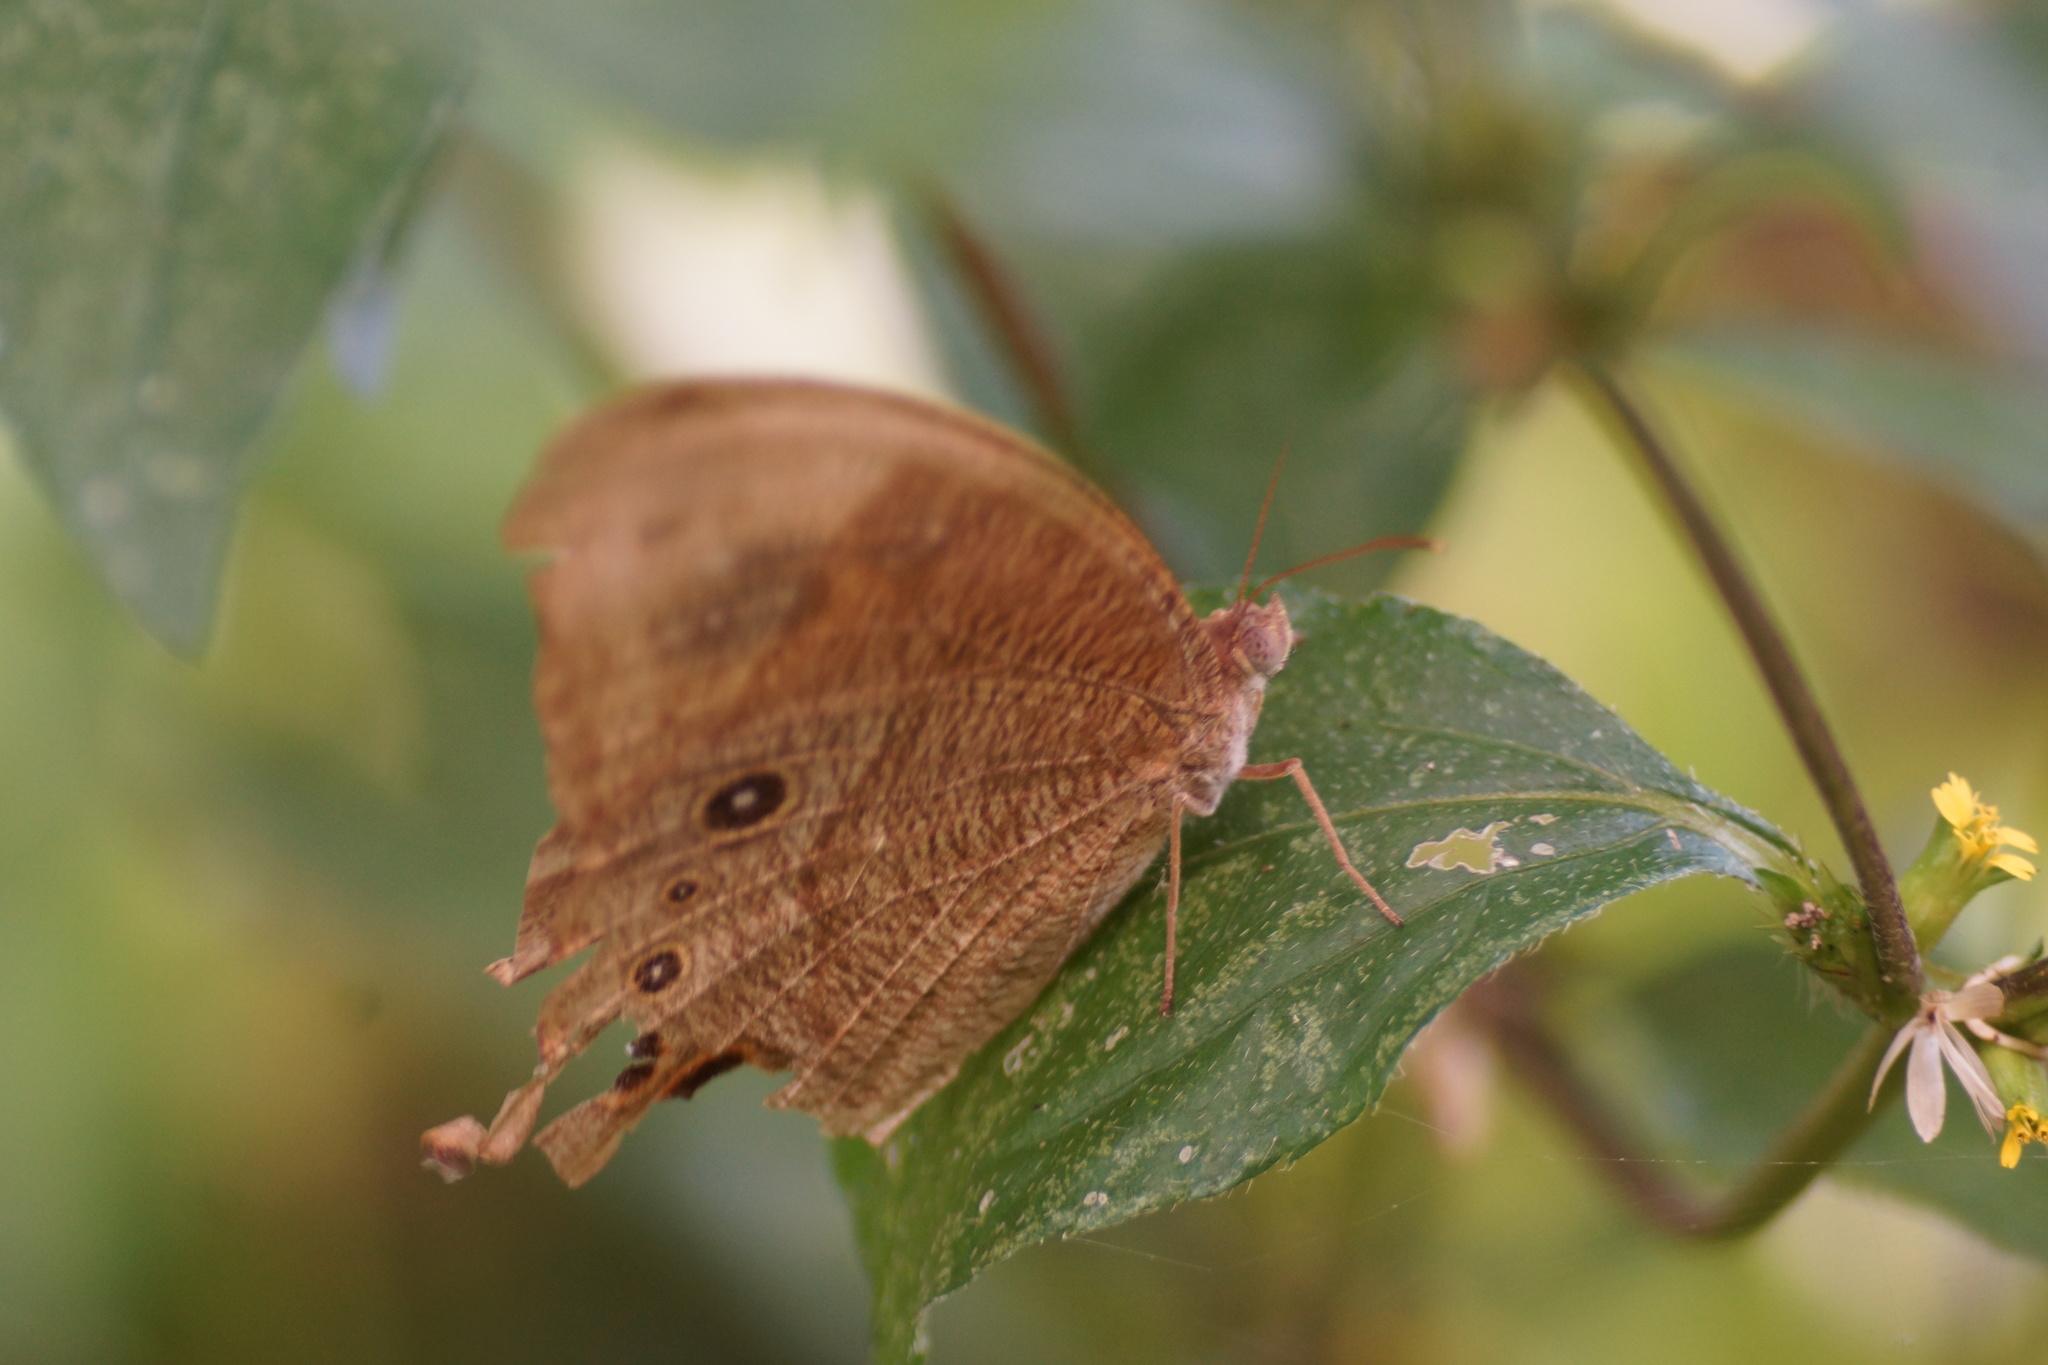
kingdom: Animalia
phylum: Arthropoda
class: Insecta
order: Lepidoptera
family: Nymphalidae
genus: Melanitis
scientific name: Melanitis leda
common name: Twilight brown
